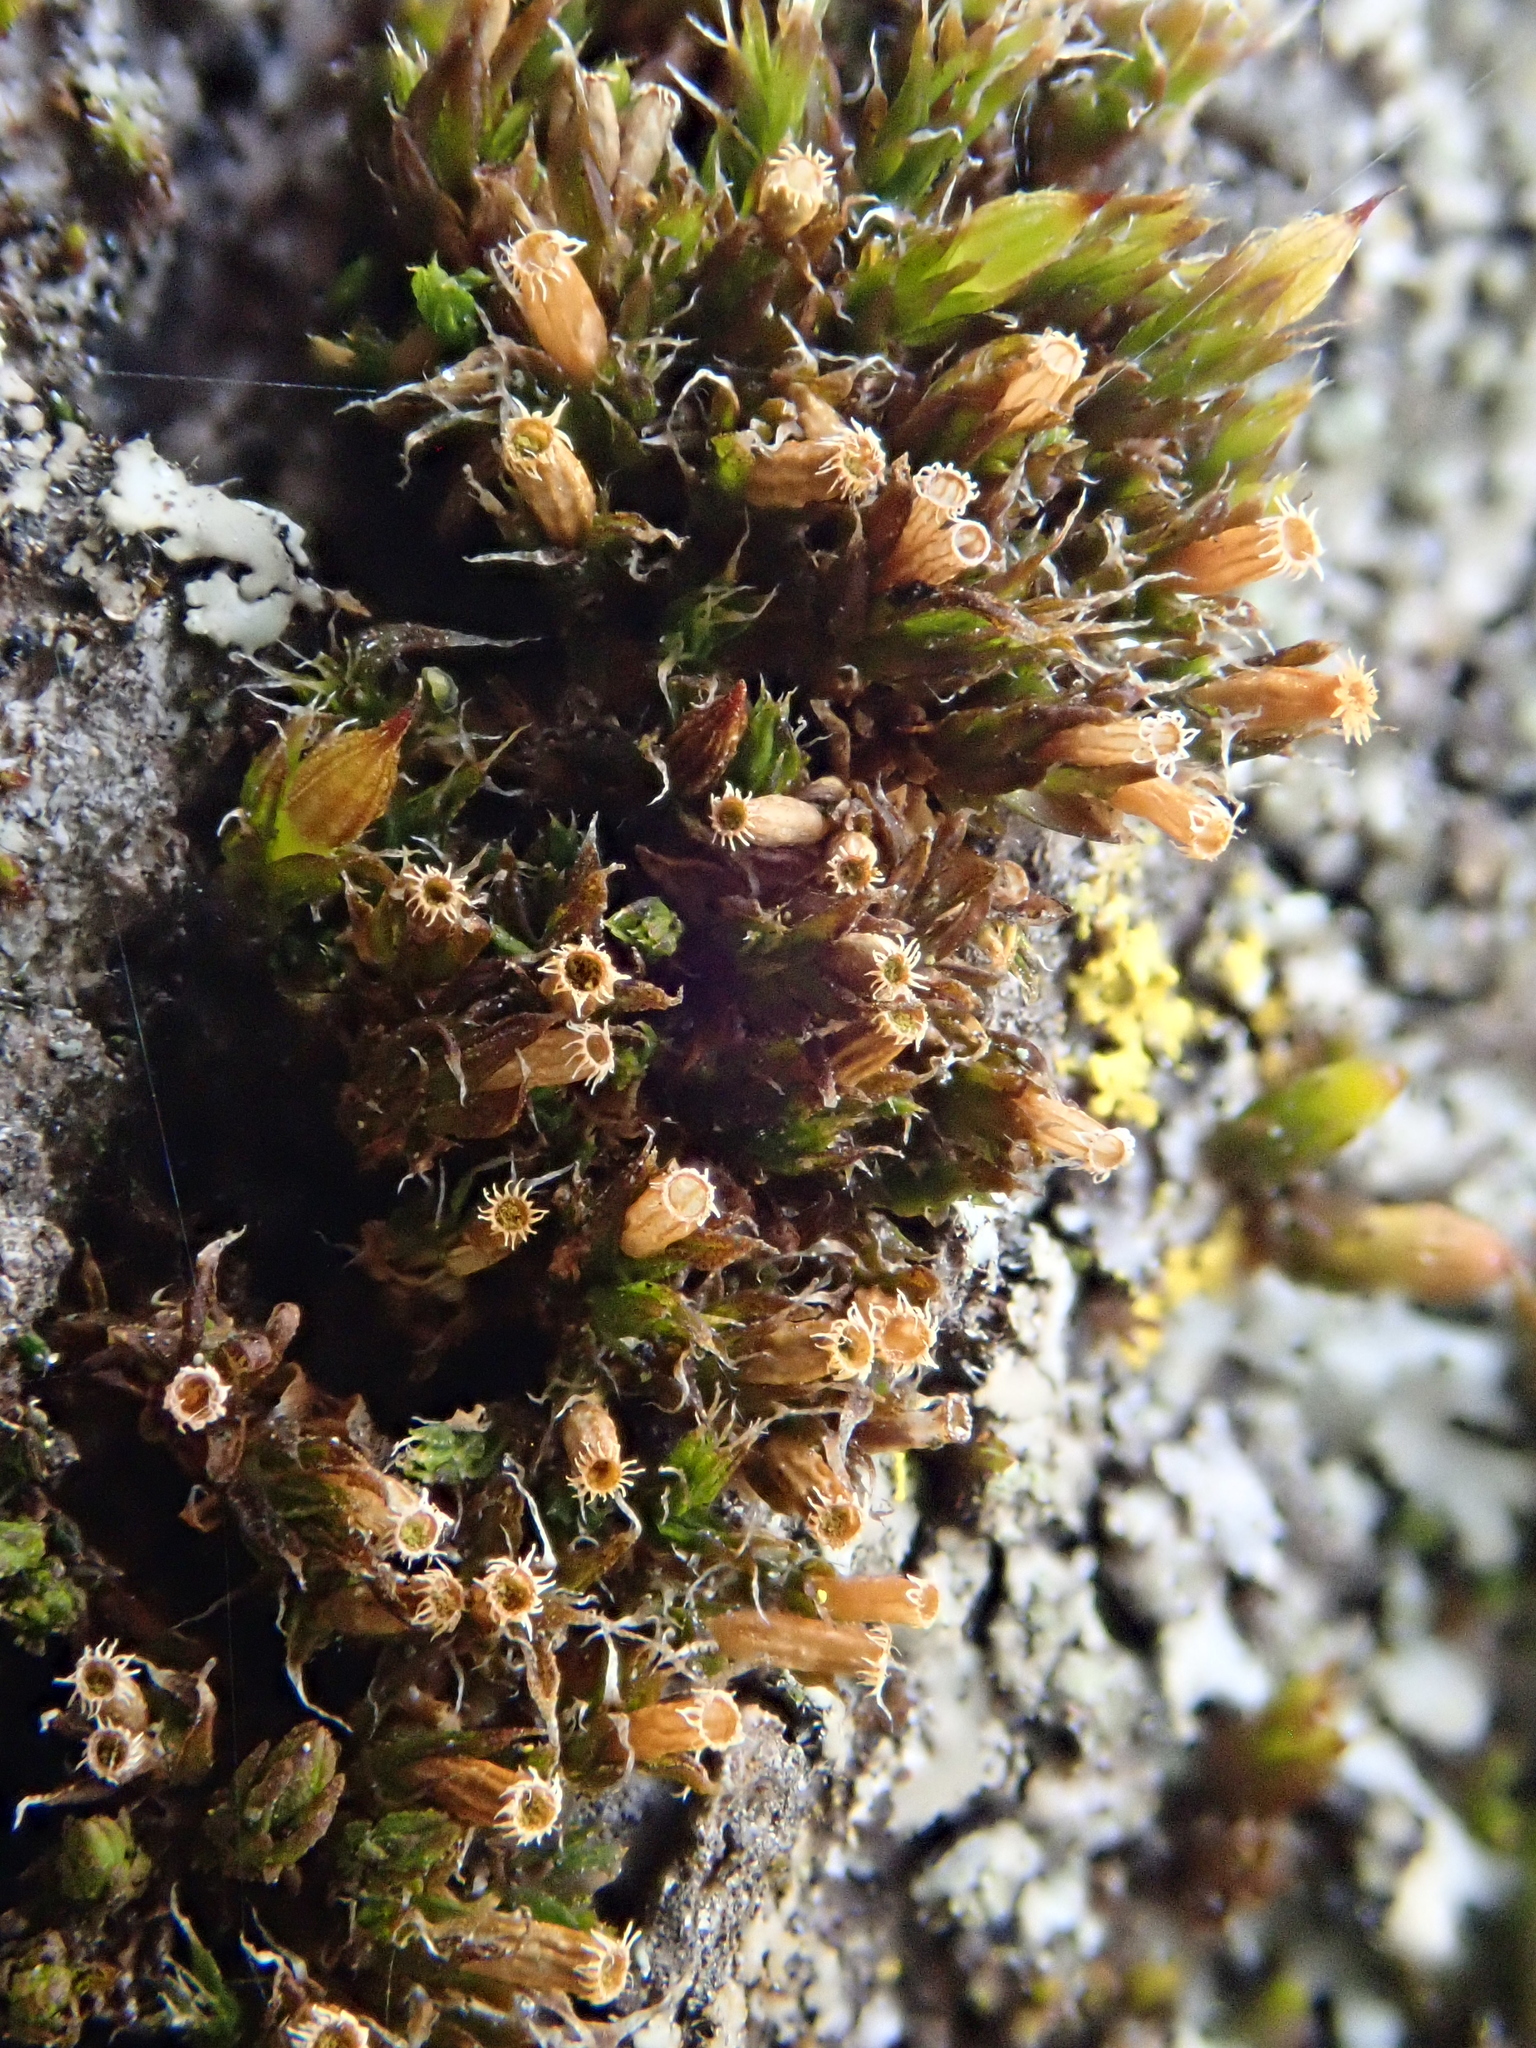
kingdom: Plantae
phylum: Bryophyta
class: Bryopsida
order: Orthotrichales
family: Orthotrichaceae
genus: Orthotrichum
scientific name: Orthotrichum diaphanum
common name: White-tipped bristle-moss
